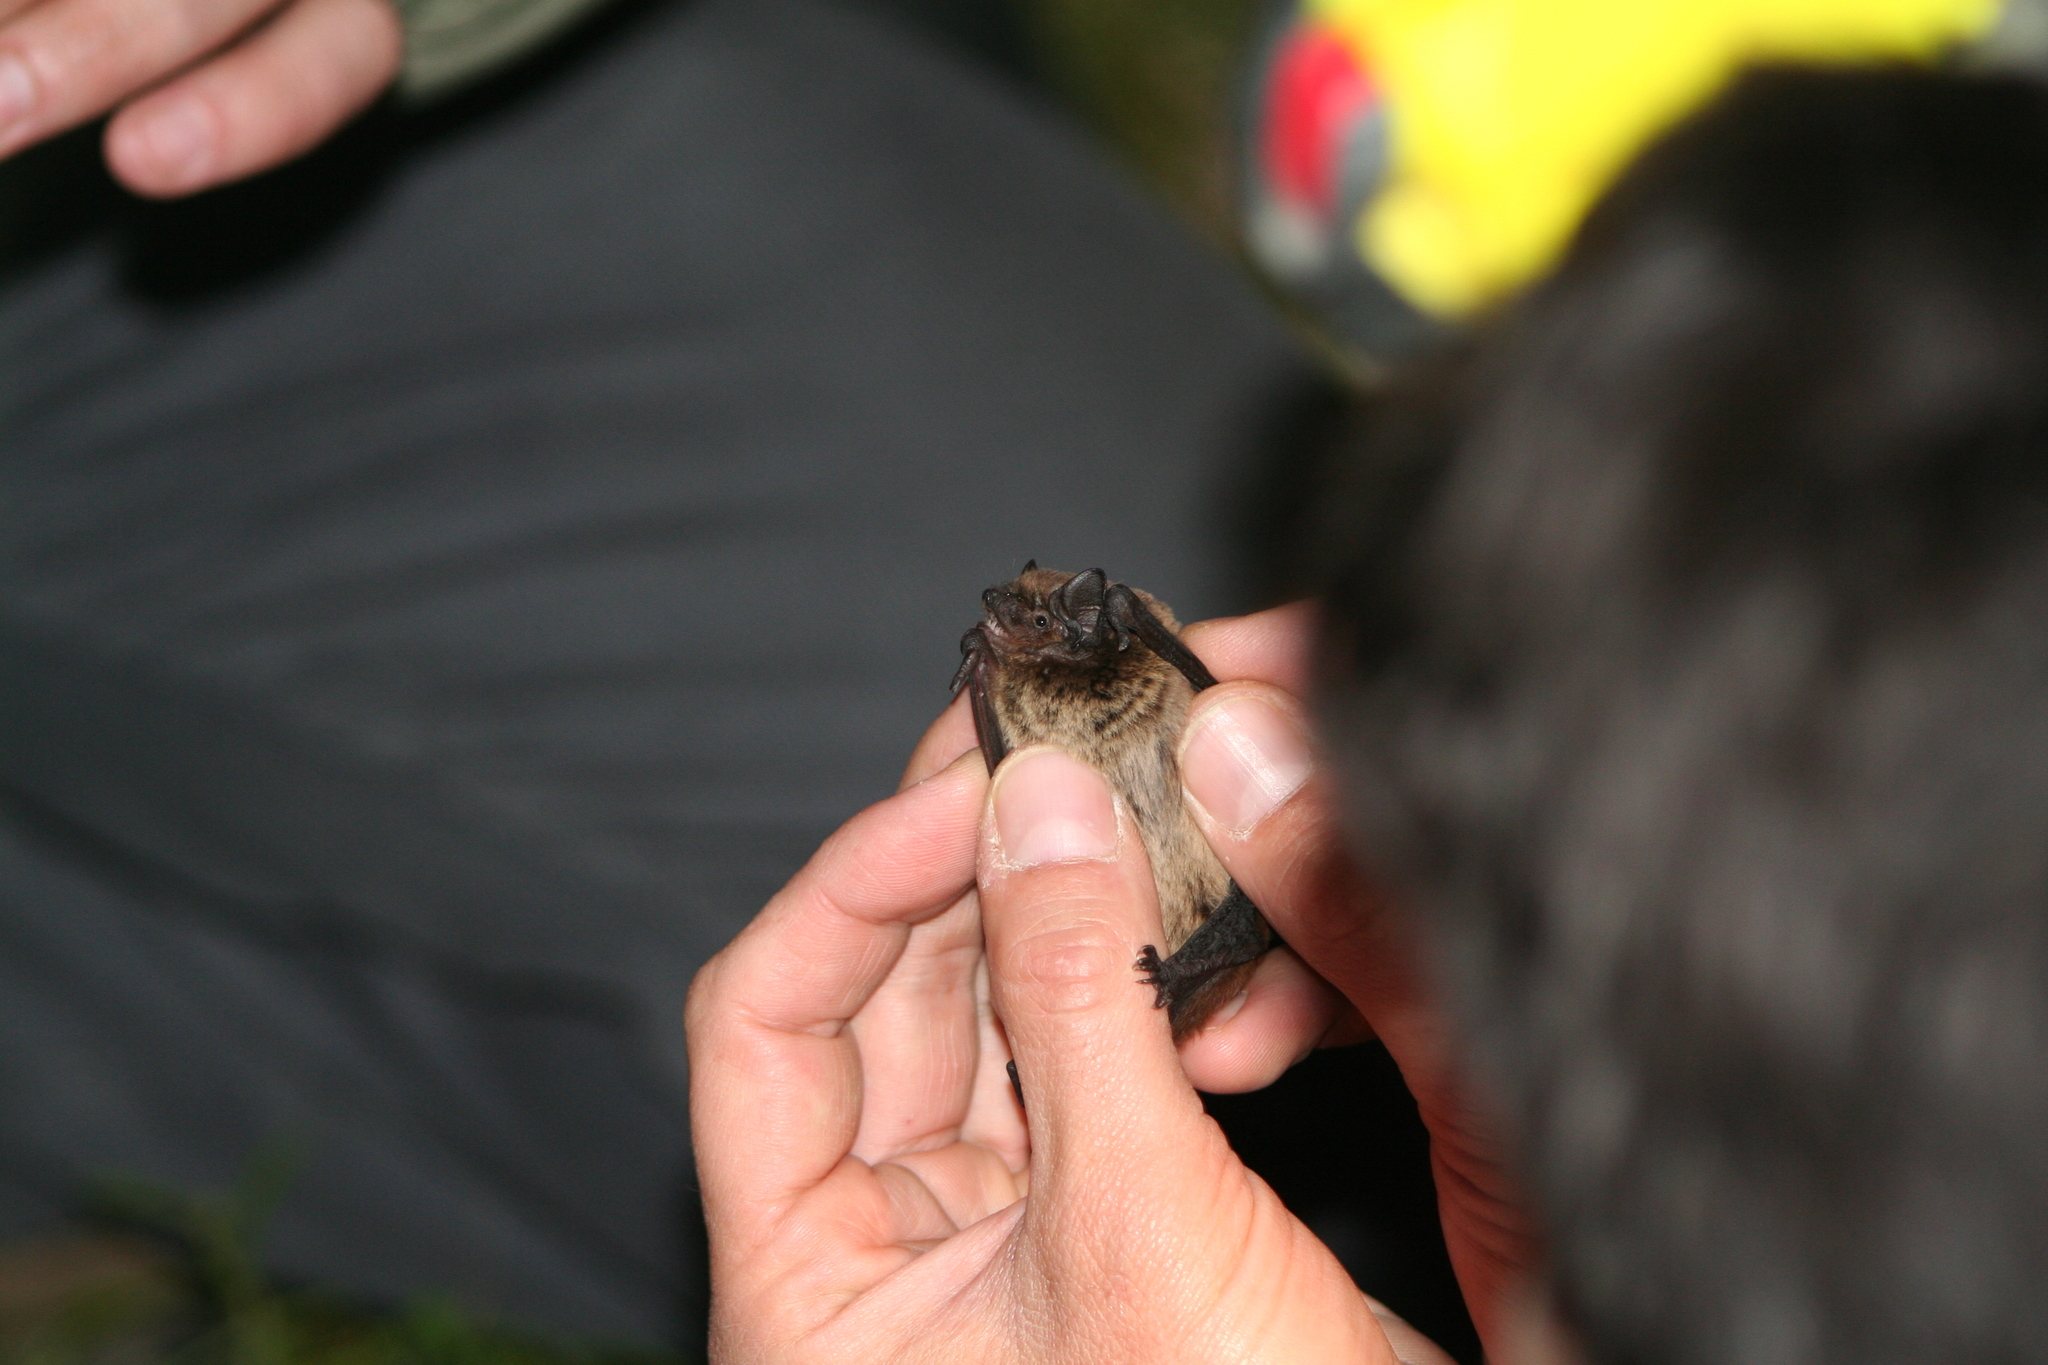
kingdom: Animalia
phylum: Chordata
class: Mammalia
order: Chiroptera
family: Vespertilionidae
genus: Nyctalus
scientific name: Nyctalus leisleri
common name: Lesser noctule
